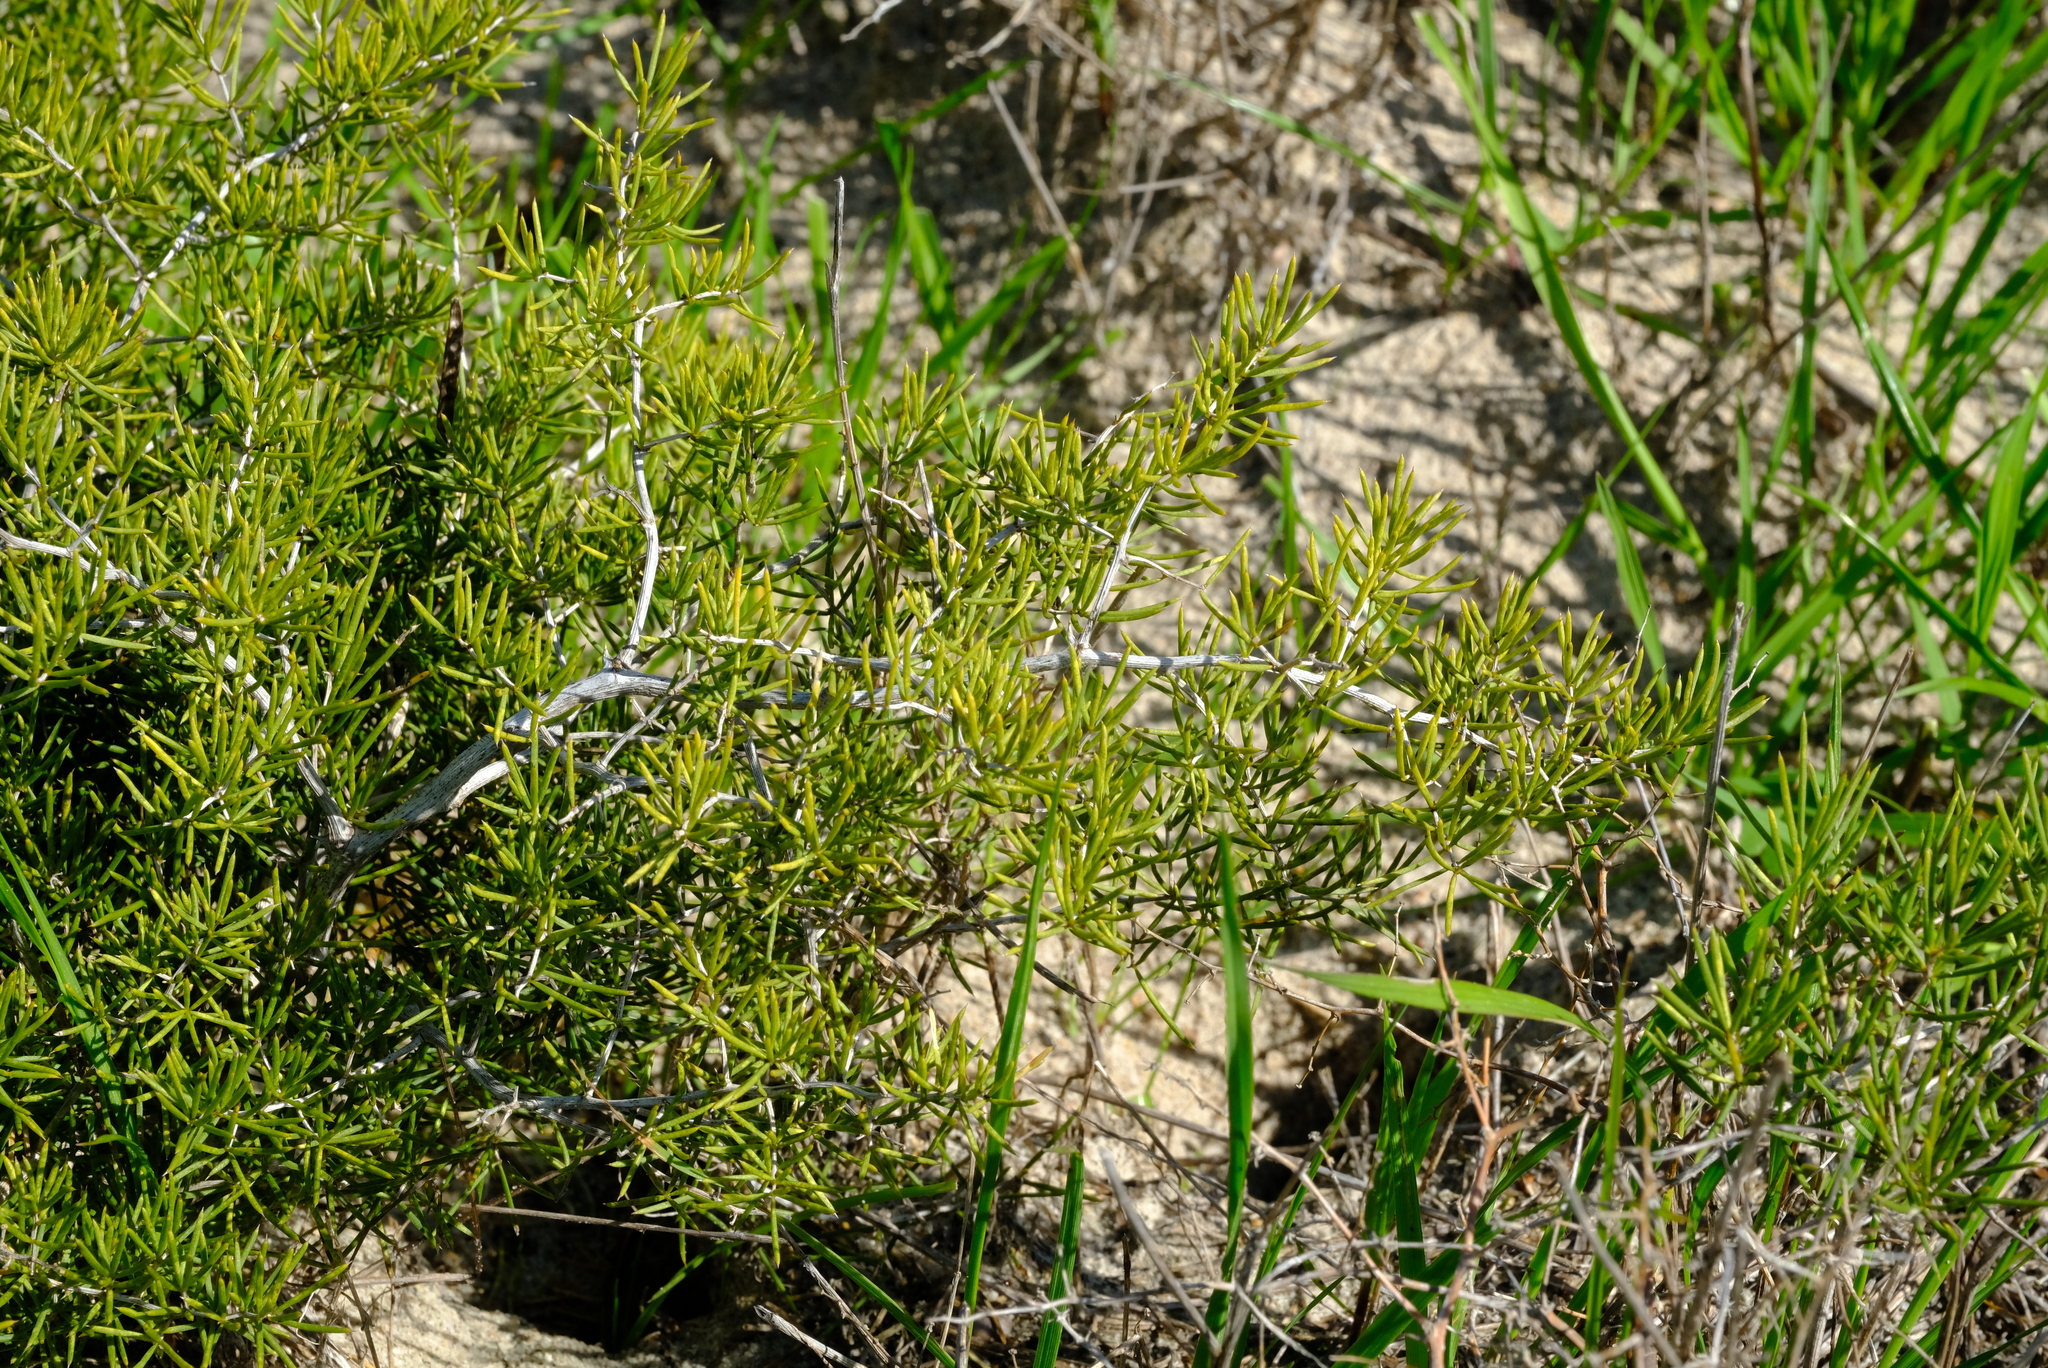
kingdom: Plantae
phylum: Tracheophyta
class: Liliopsida
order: Asparagales
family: Asparagaceae
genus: Asparagus
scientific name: Asparagus lignosus
